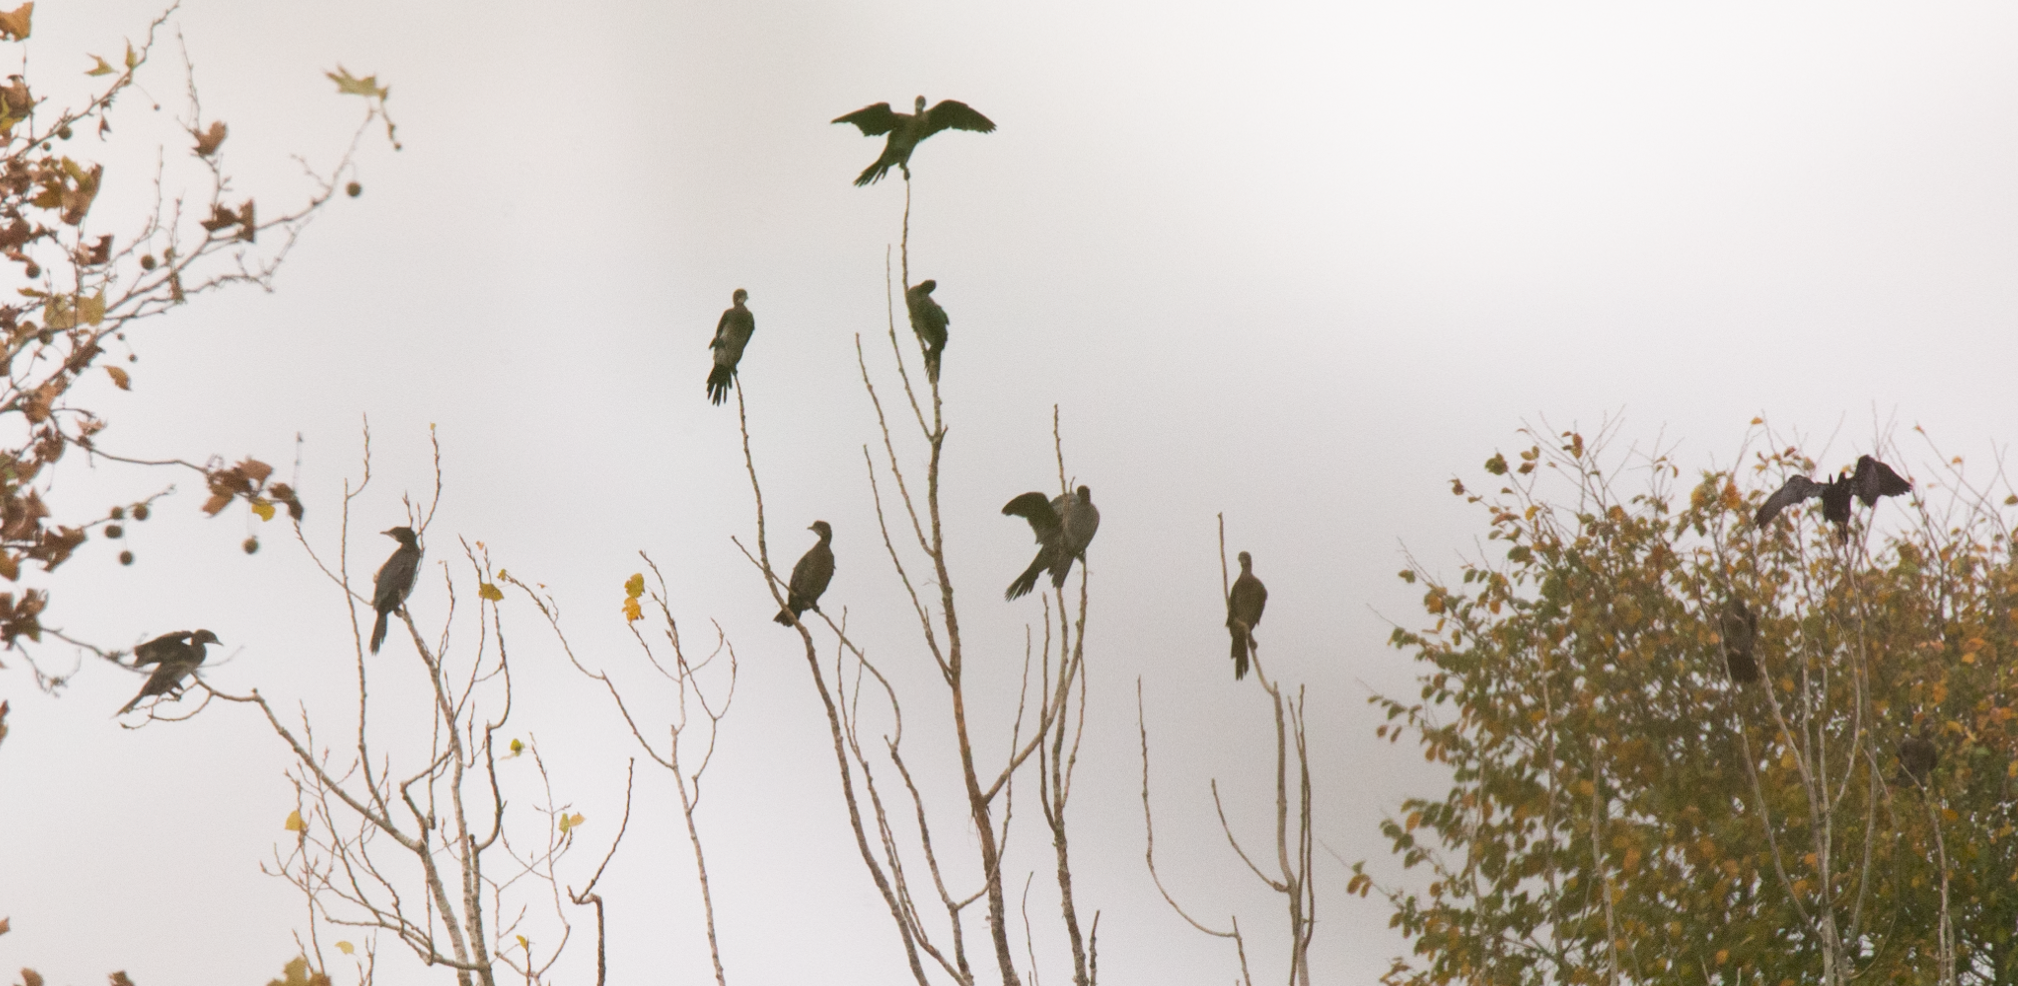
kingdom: Animalia
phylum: Chordata
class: Aves
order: Suliformes
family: Phalacrocoracidae
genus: Microcarbo
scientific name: Microcarbo pygmaeus
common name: Pygmy cormorant
